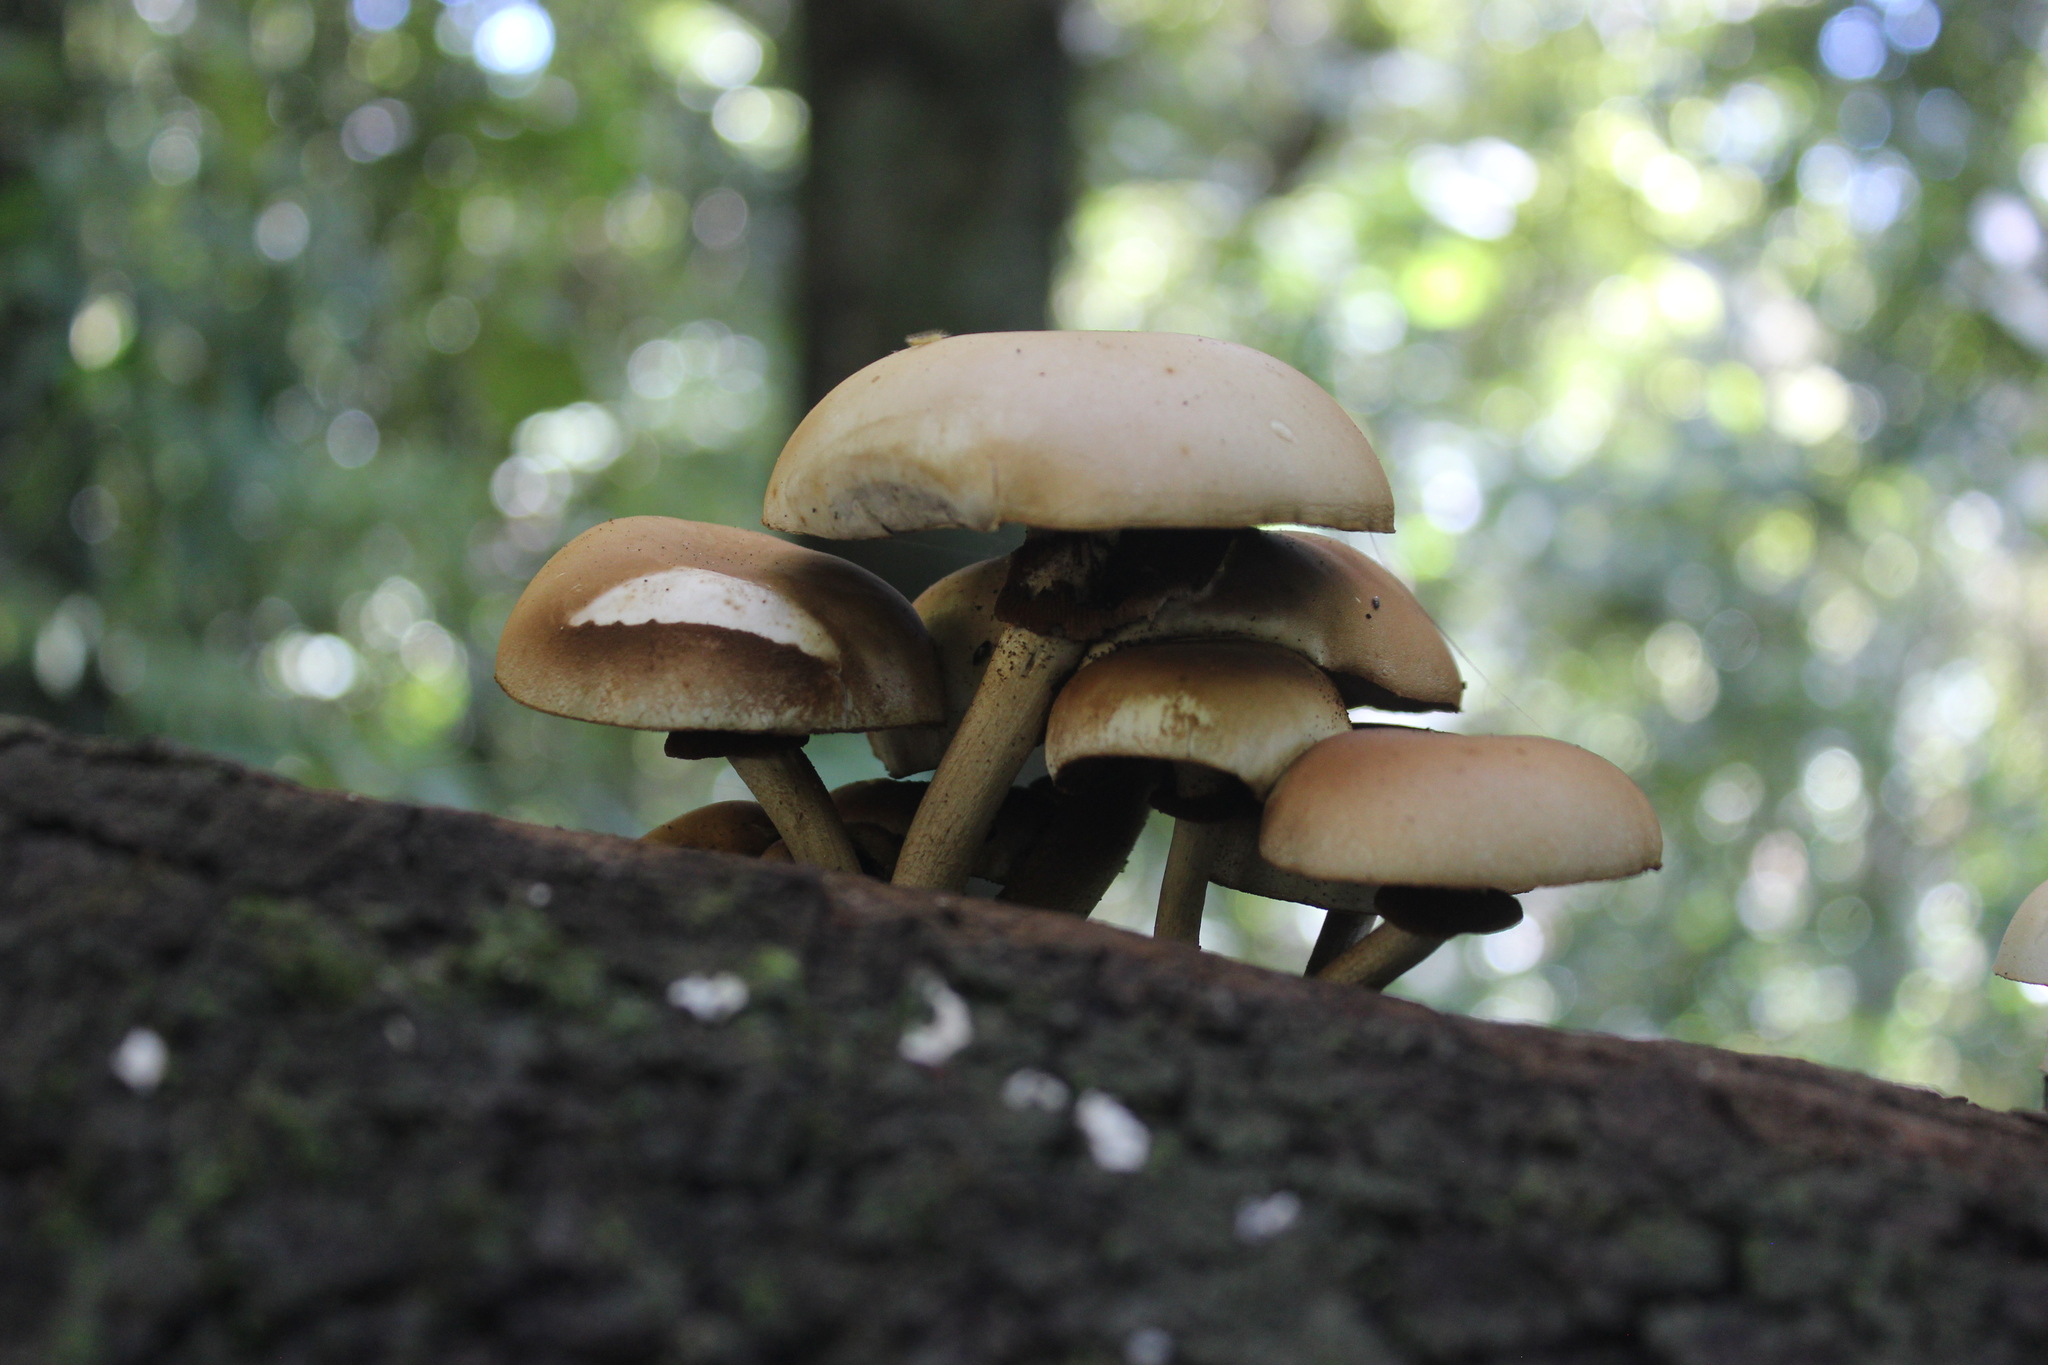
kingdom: Fungi
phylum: Basidiomycota
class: Agaricomycetes
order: Agaricales
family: Tubariaceae
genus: Cyclocybe
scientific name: Cyclocybe parasitica
